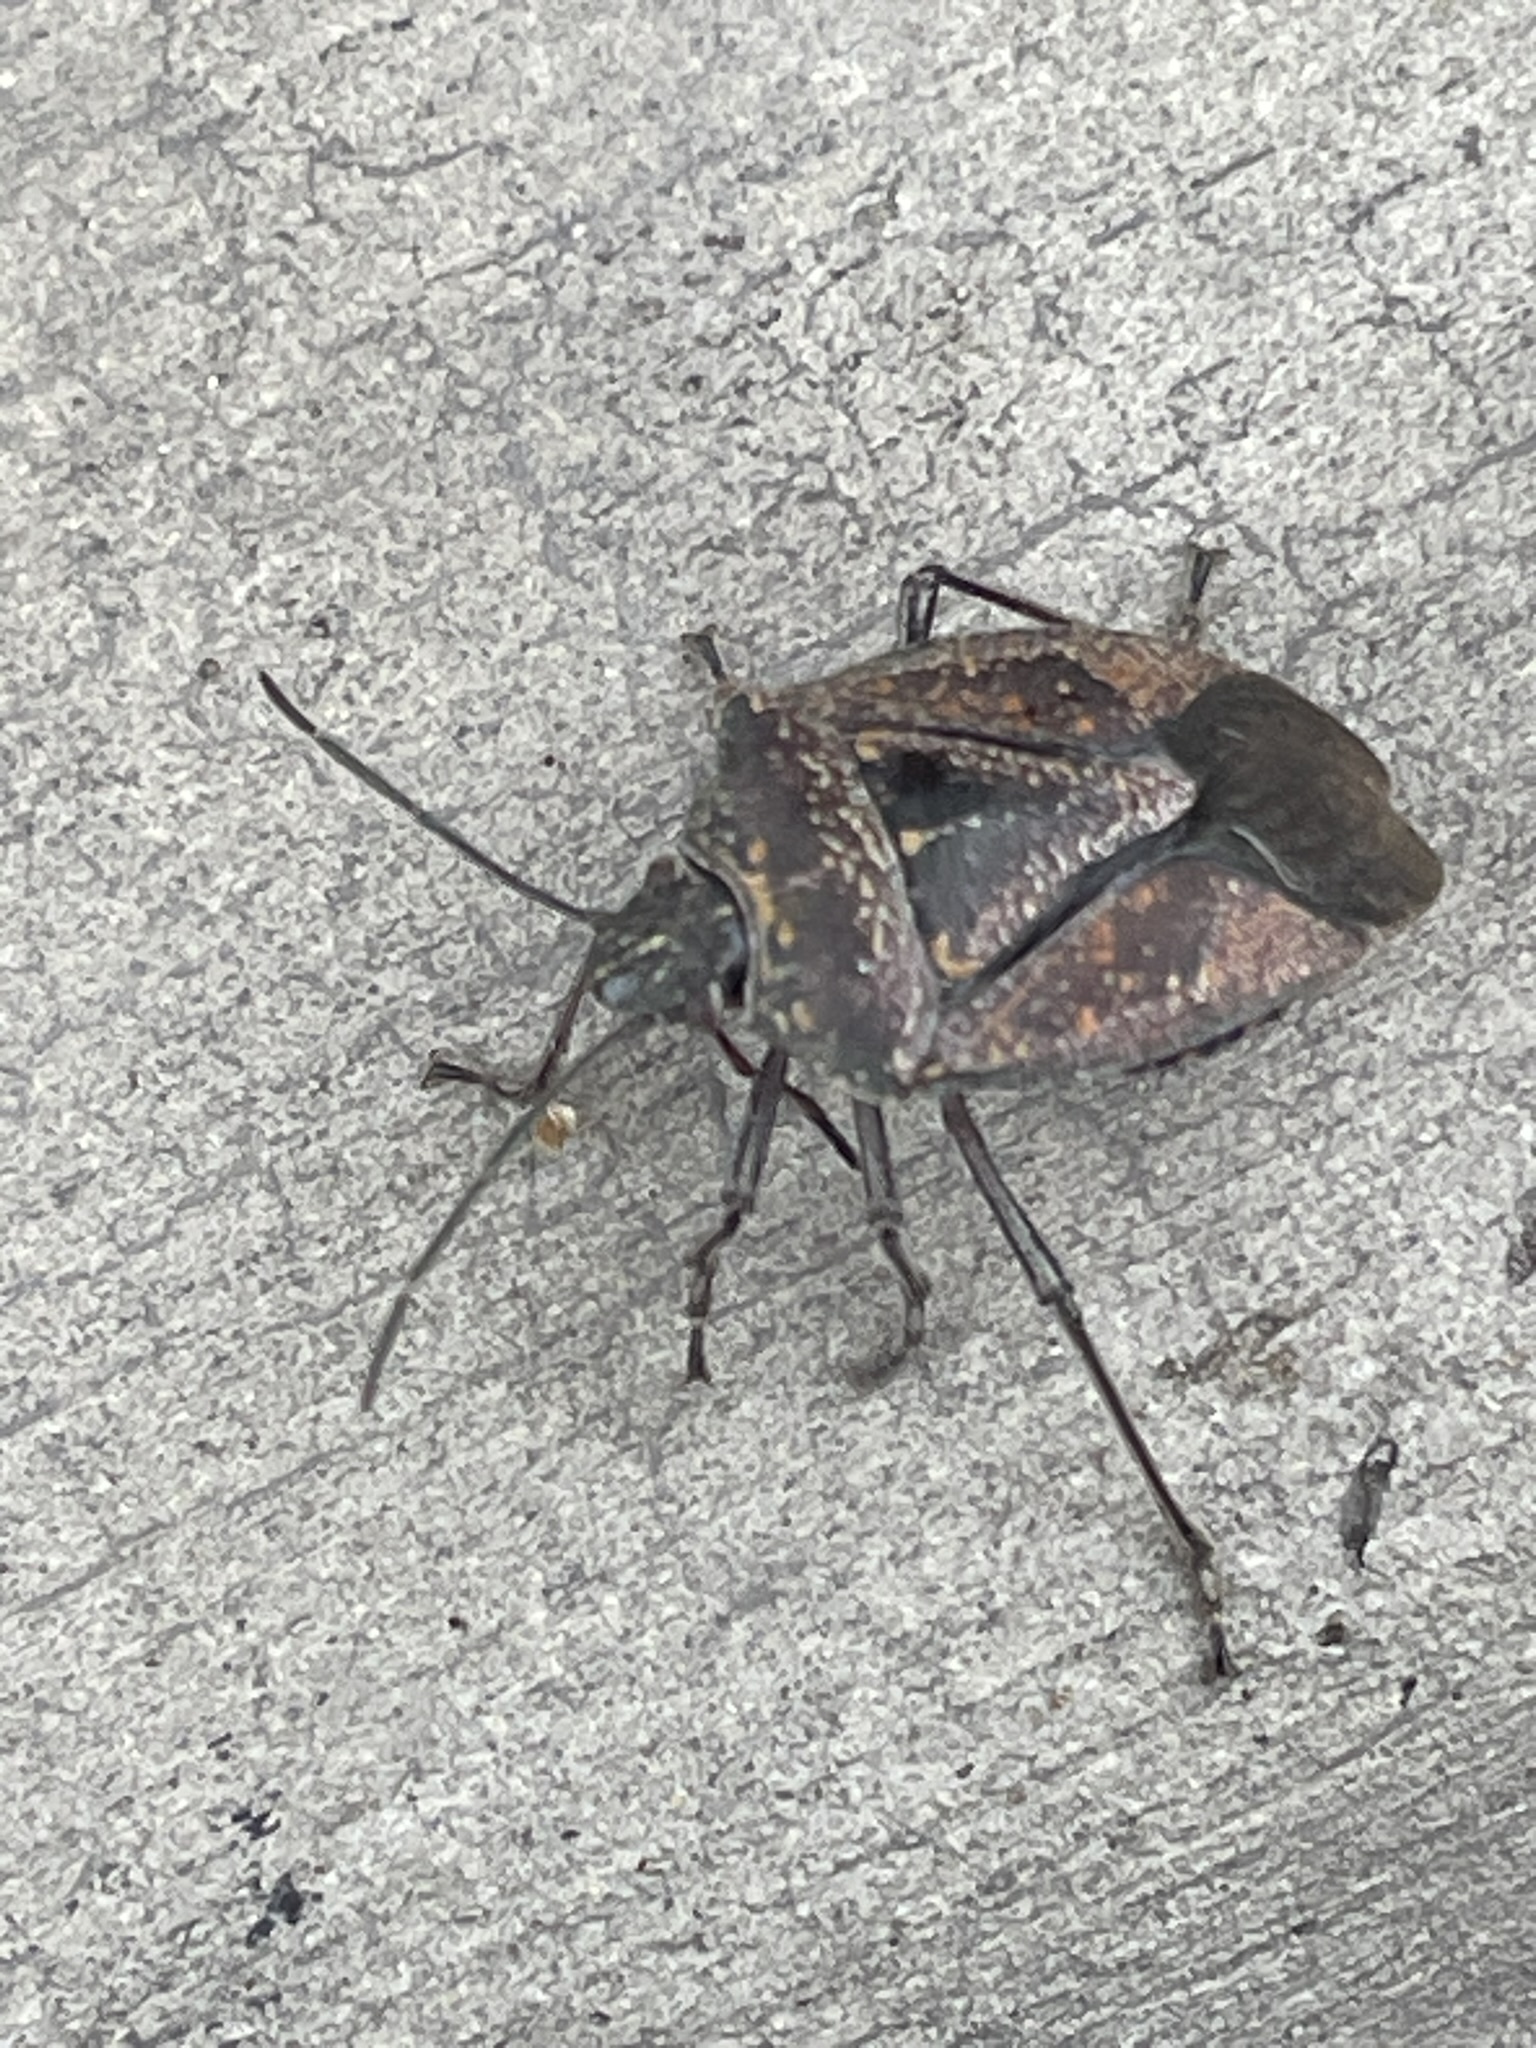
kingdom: Animalia
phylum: Arthropoda
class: Insecta
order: Hemiptera
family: Pentatomidae
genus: Pellaea
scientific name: Pellaea stictica
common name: Stink bug
